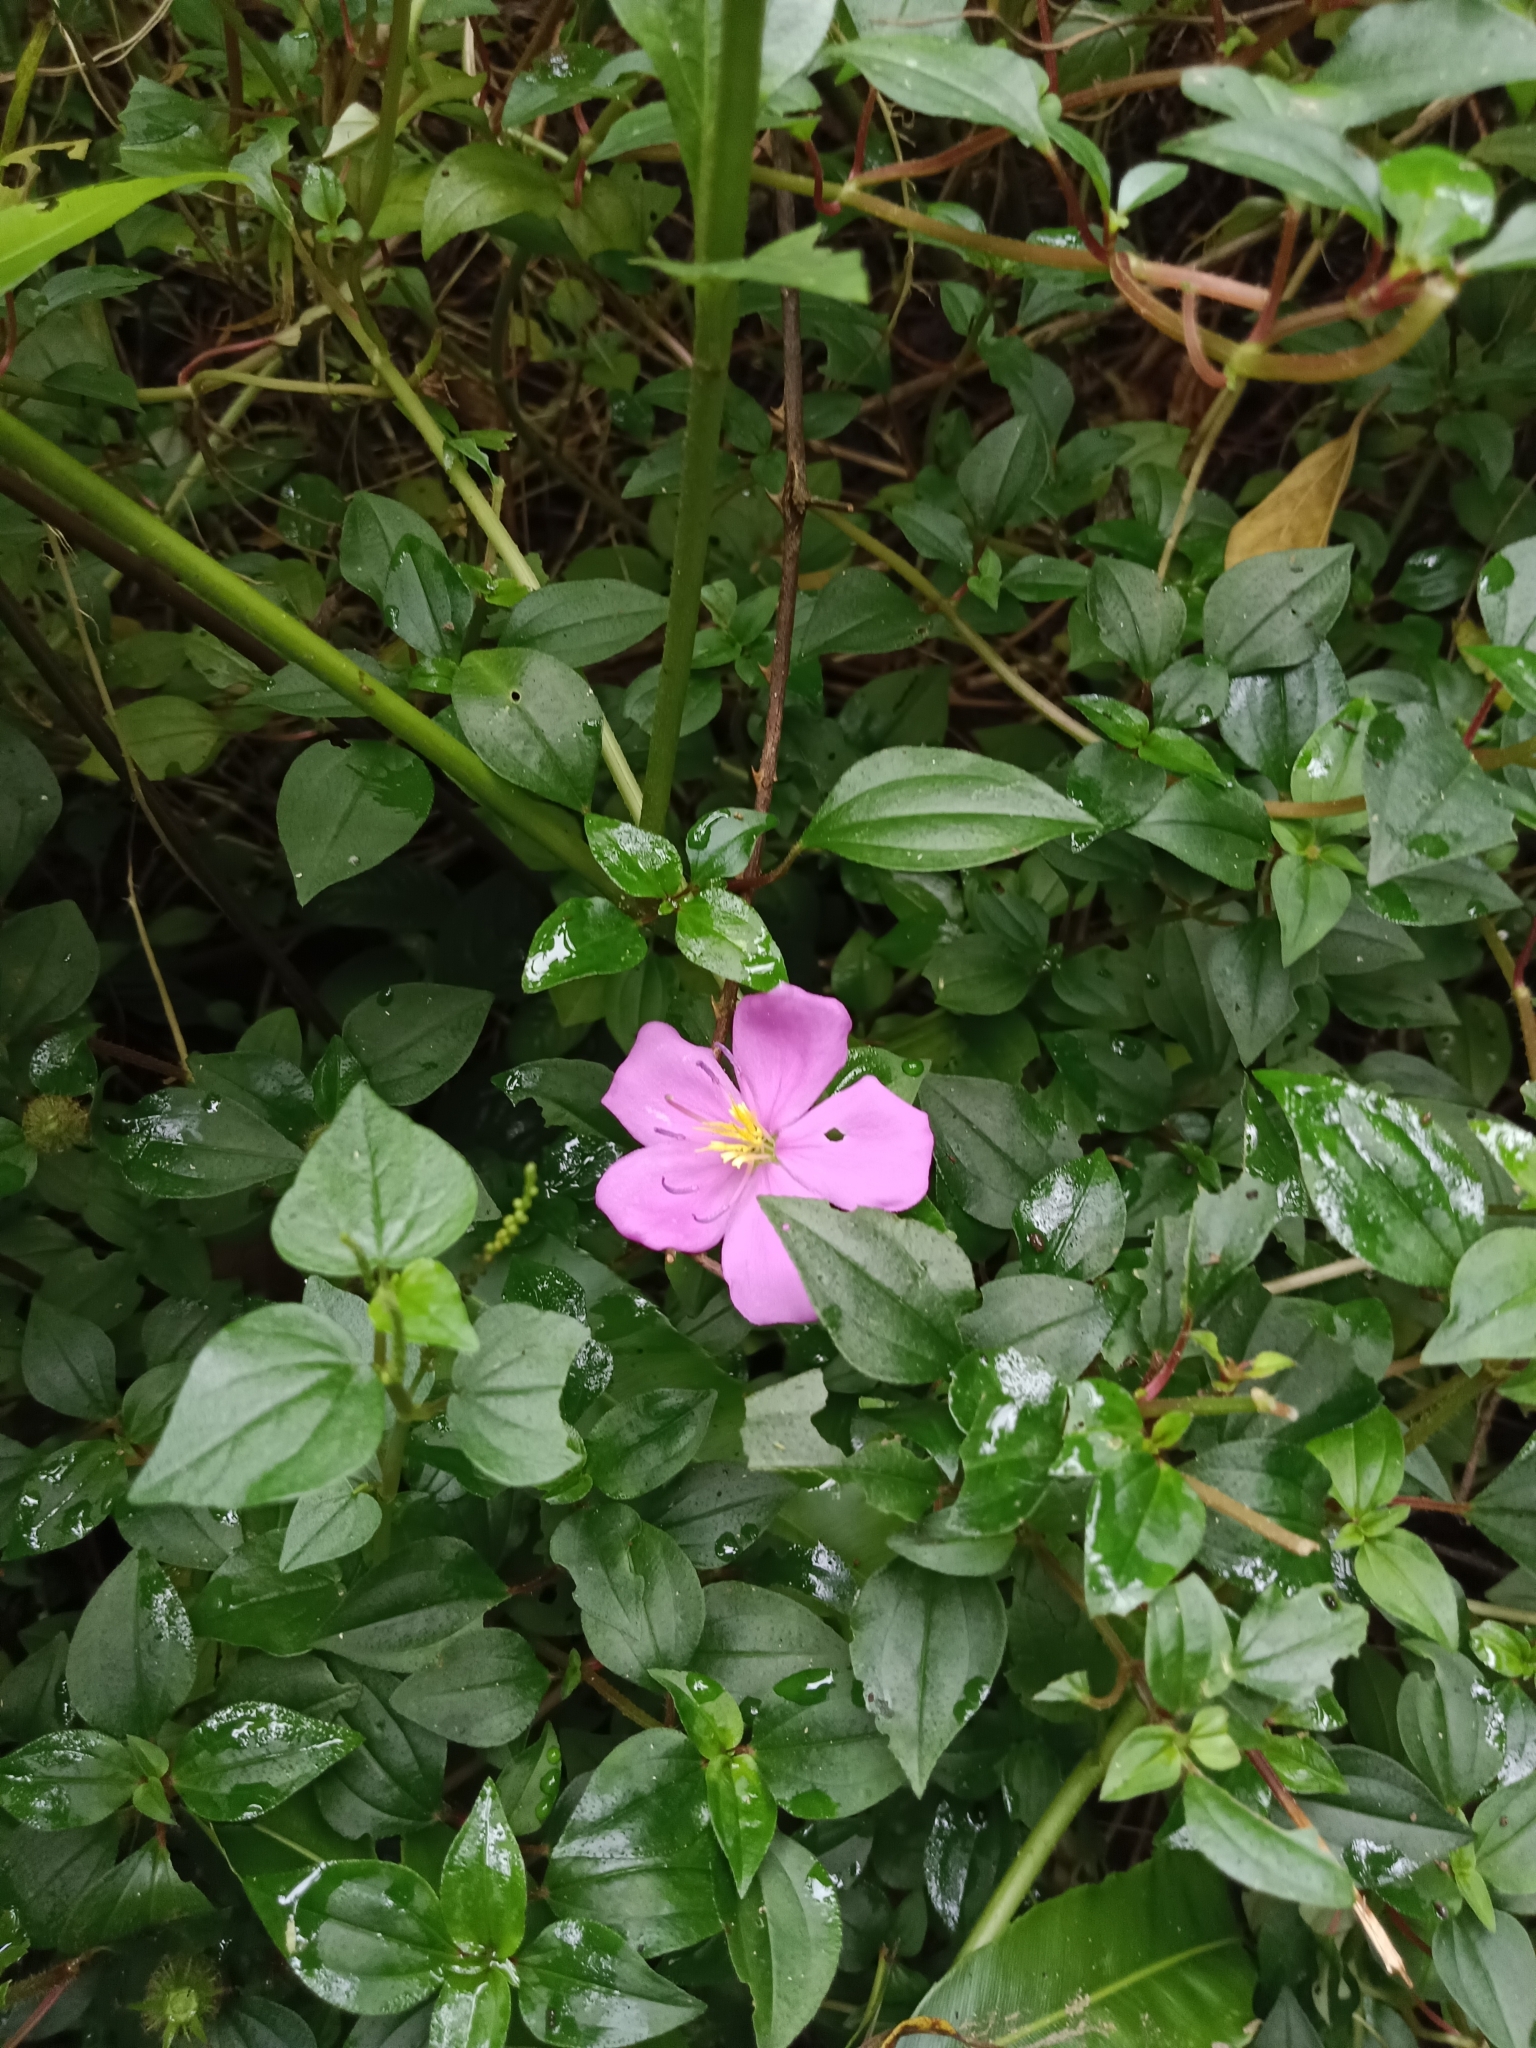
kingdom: Plantae
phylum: Tracheophyta
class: Magnoliopsida
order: Myrtales
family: Melastomataceae
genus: Heterotis
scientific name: Heterotis rotundifolia
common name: Pinklady
